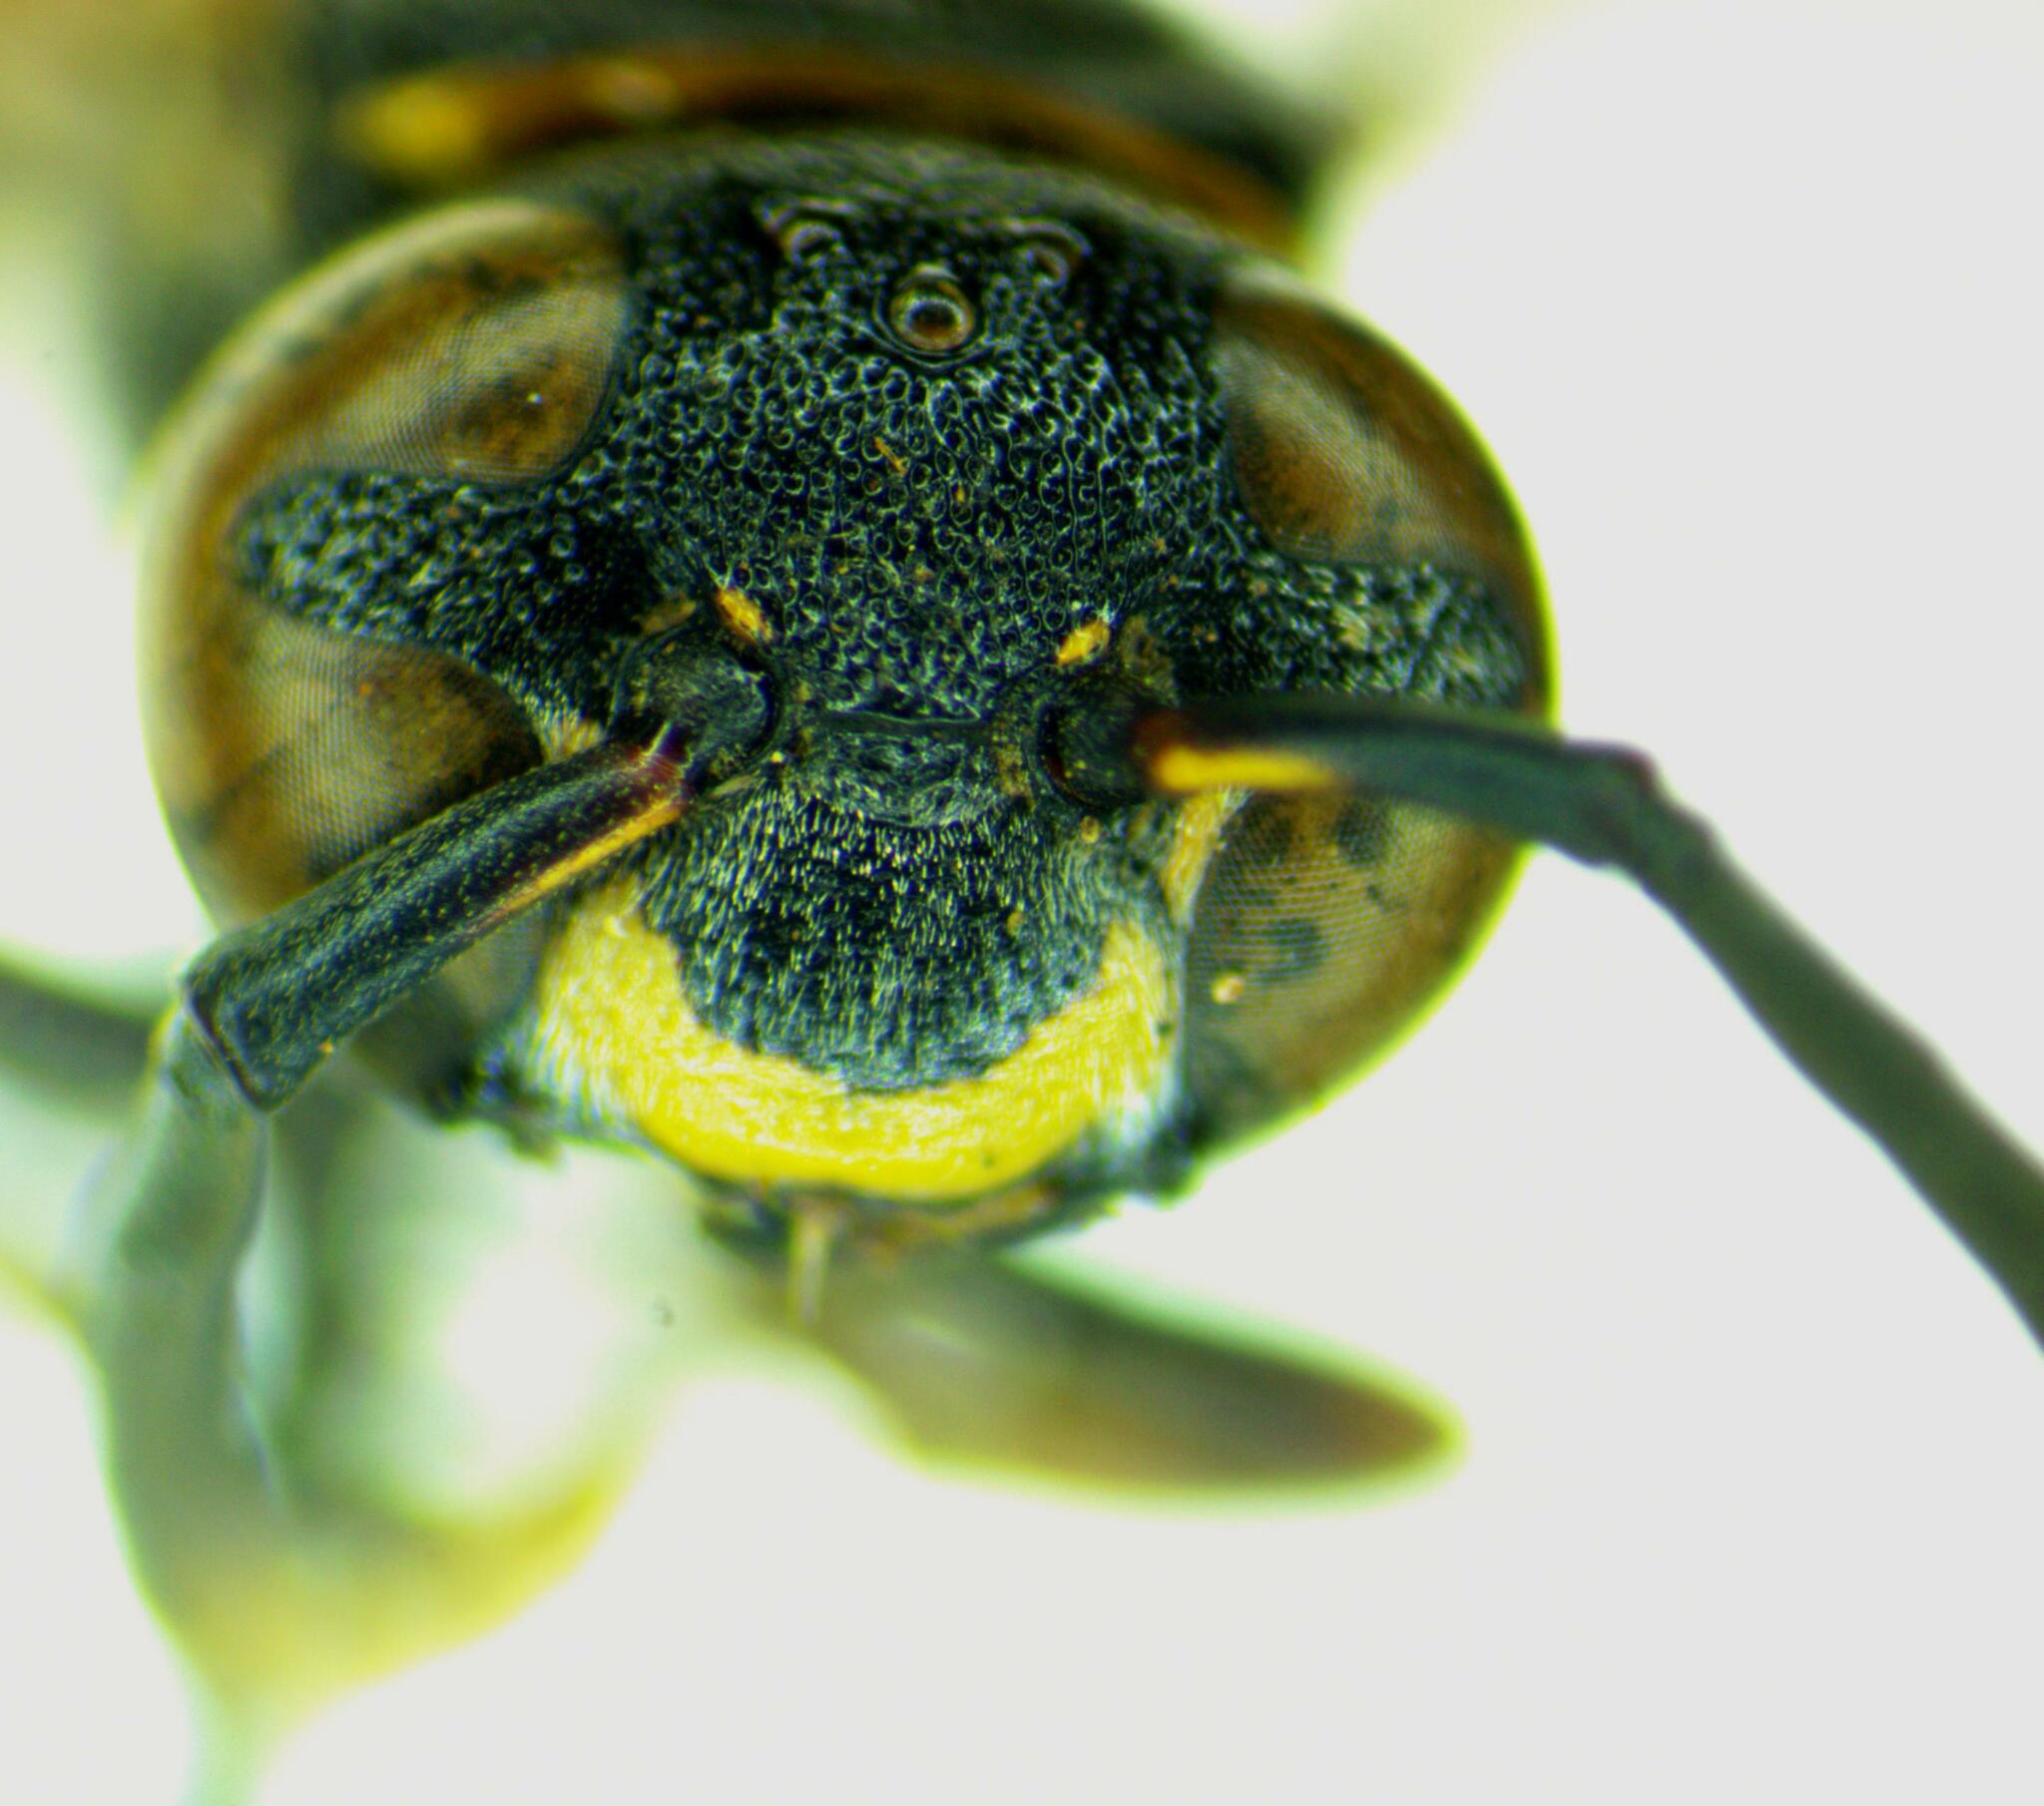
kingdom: Animalia
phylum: Arthropoda
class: Insecta
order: Hymenoptera
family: Eumenidae
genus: Zethus
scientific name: Zethus miscogaster
